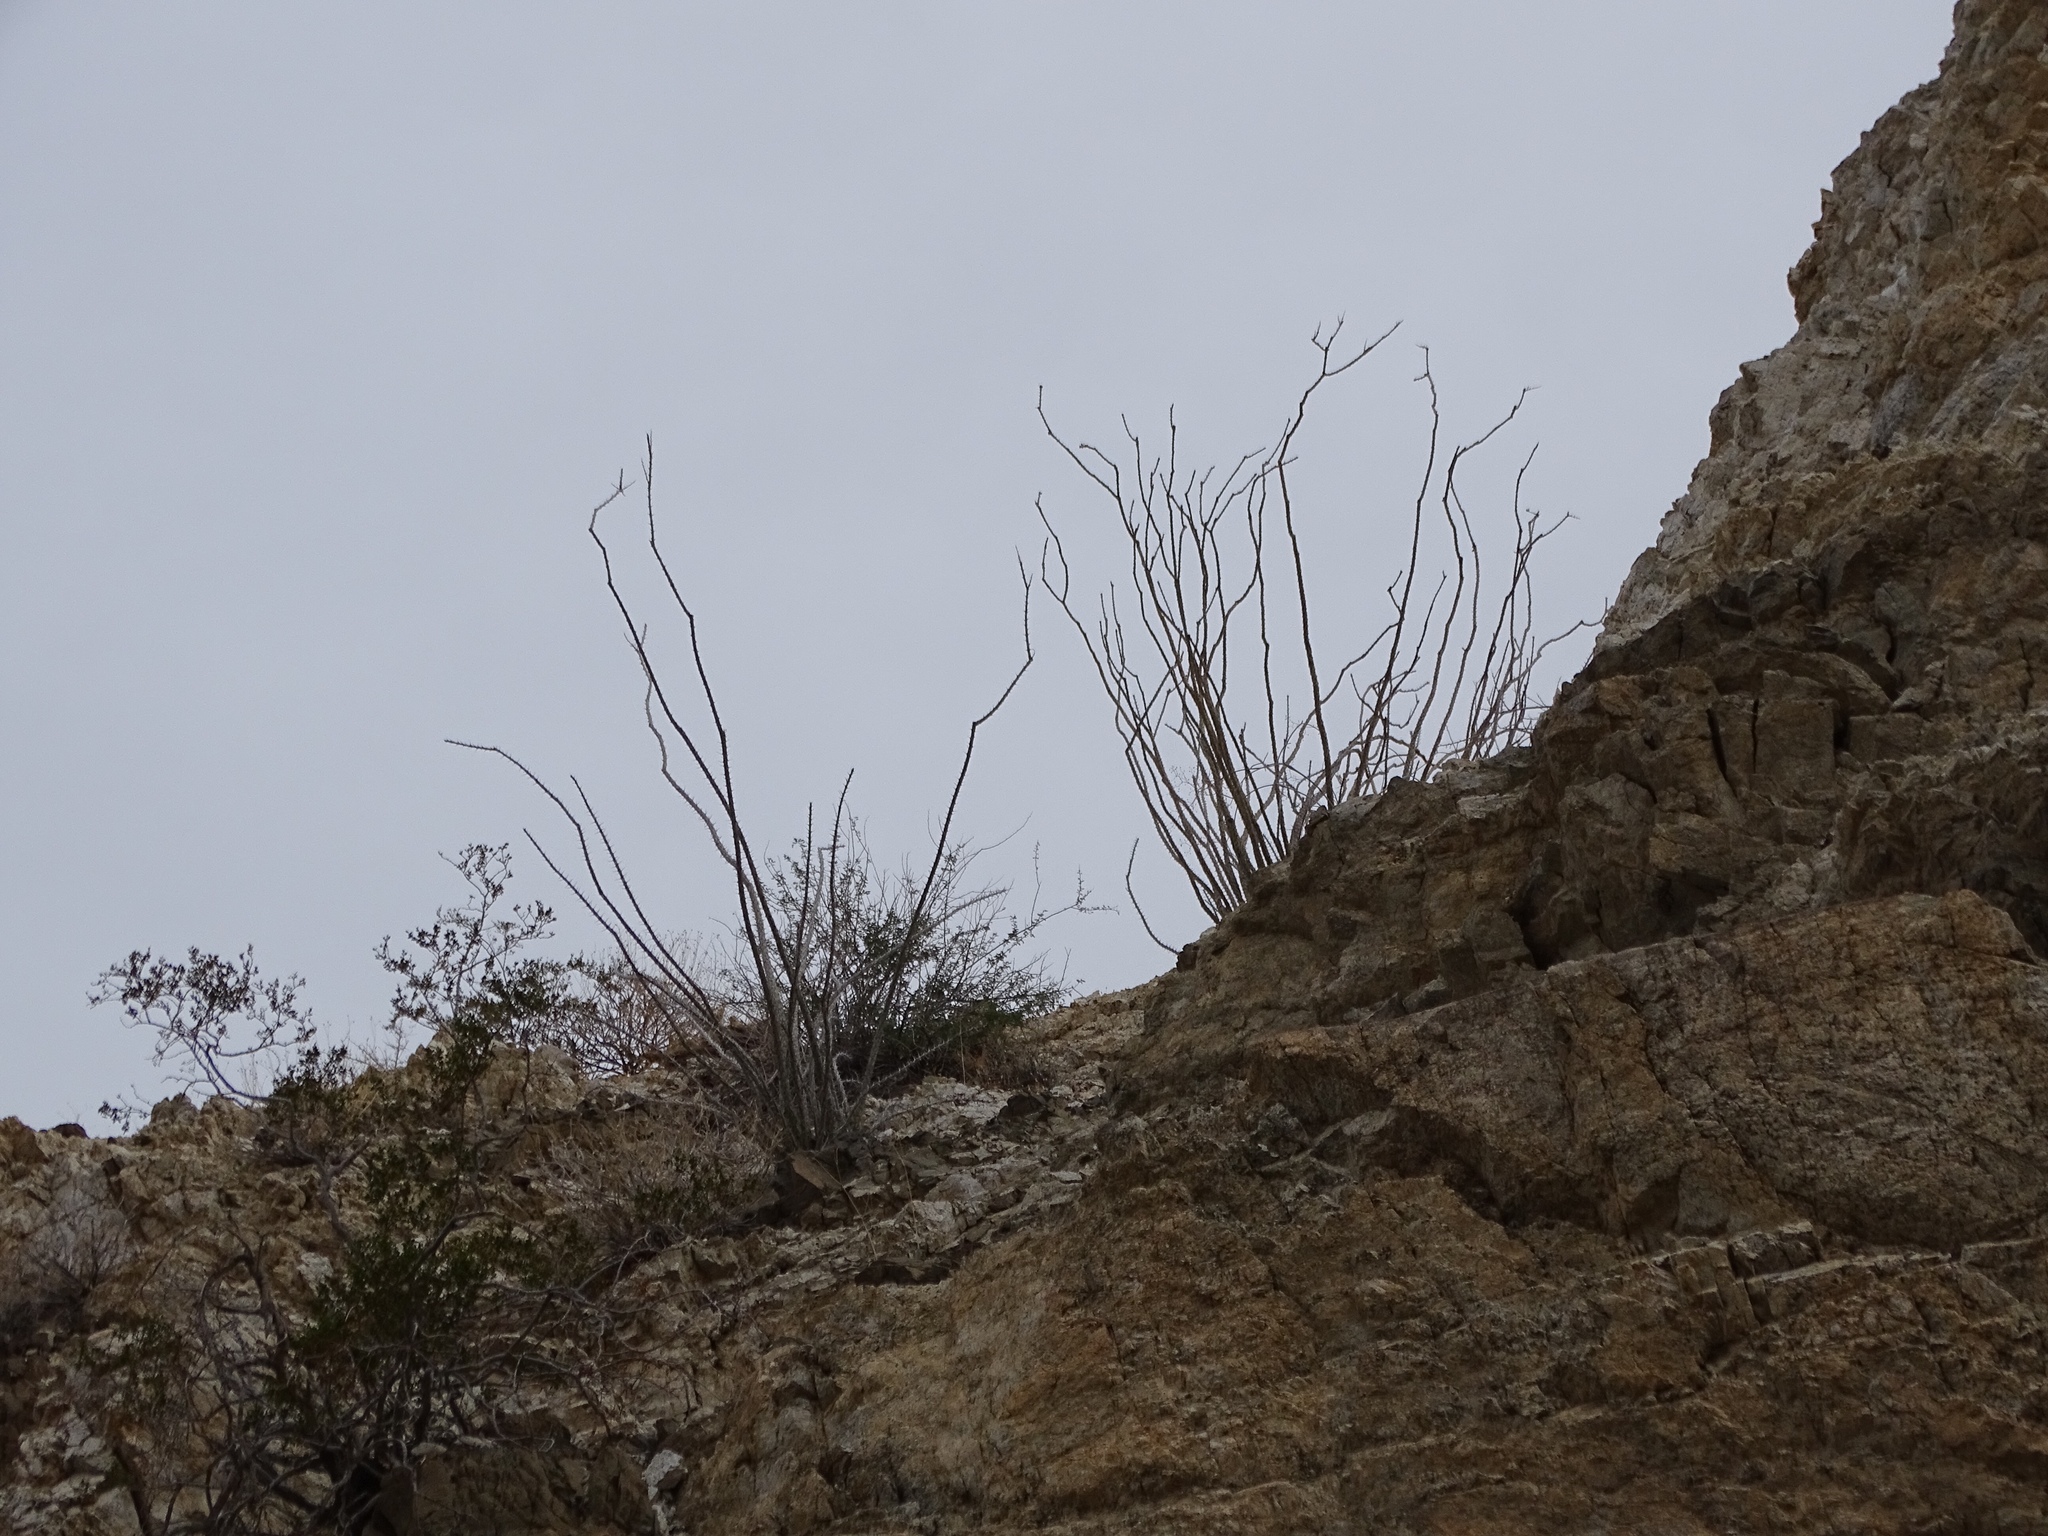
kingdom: Plantae
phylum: Tracheophyta
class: Magnoliopsida
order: Ericales
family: Fouquieriaceae
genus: Fouquieria
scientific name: Fouquieria splendens
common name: Vine-cactus
